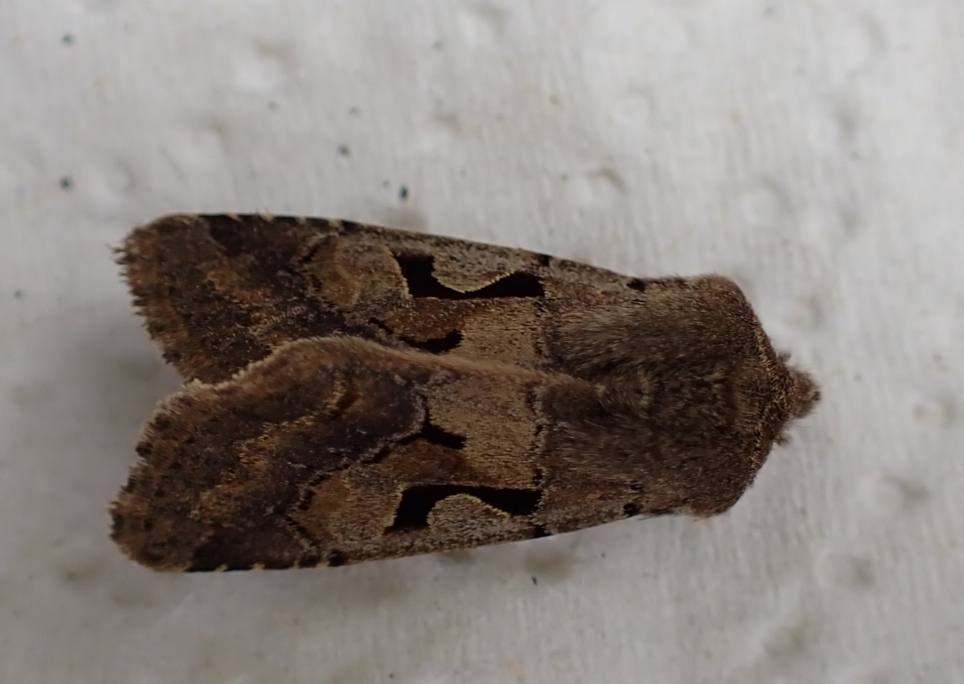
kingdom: Animalia
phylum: Arthropoda
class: Insecta
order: Lepidoptera
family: Noctuidae
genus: Orthosia
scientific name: Orthosia gothica
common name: Hebrew character
